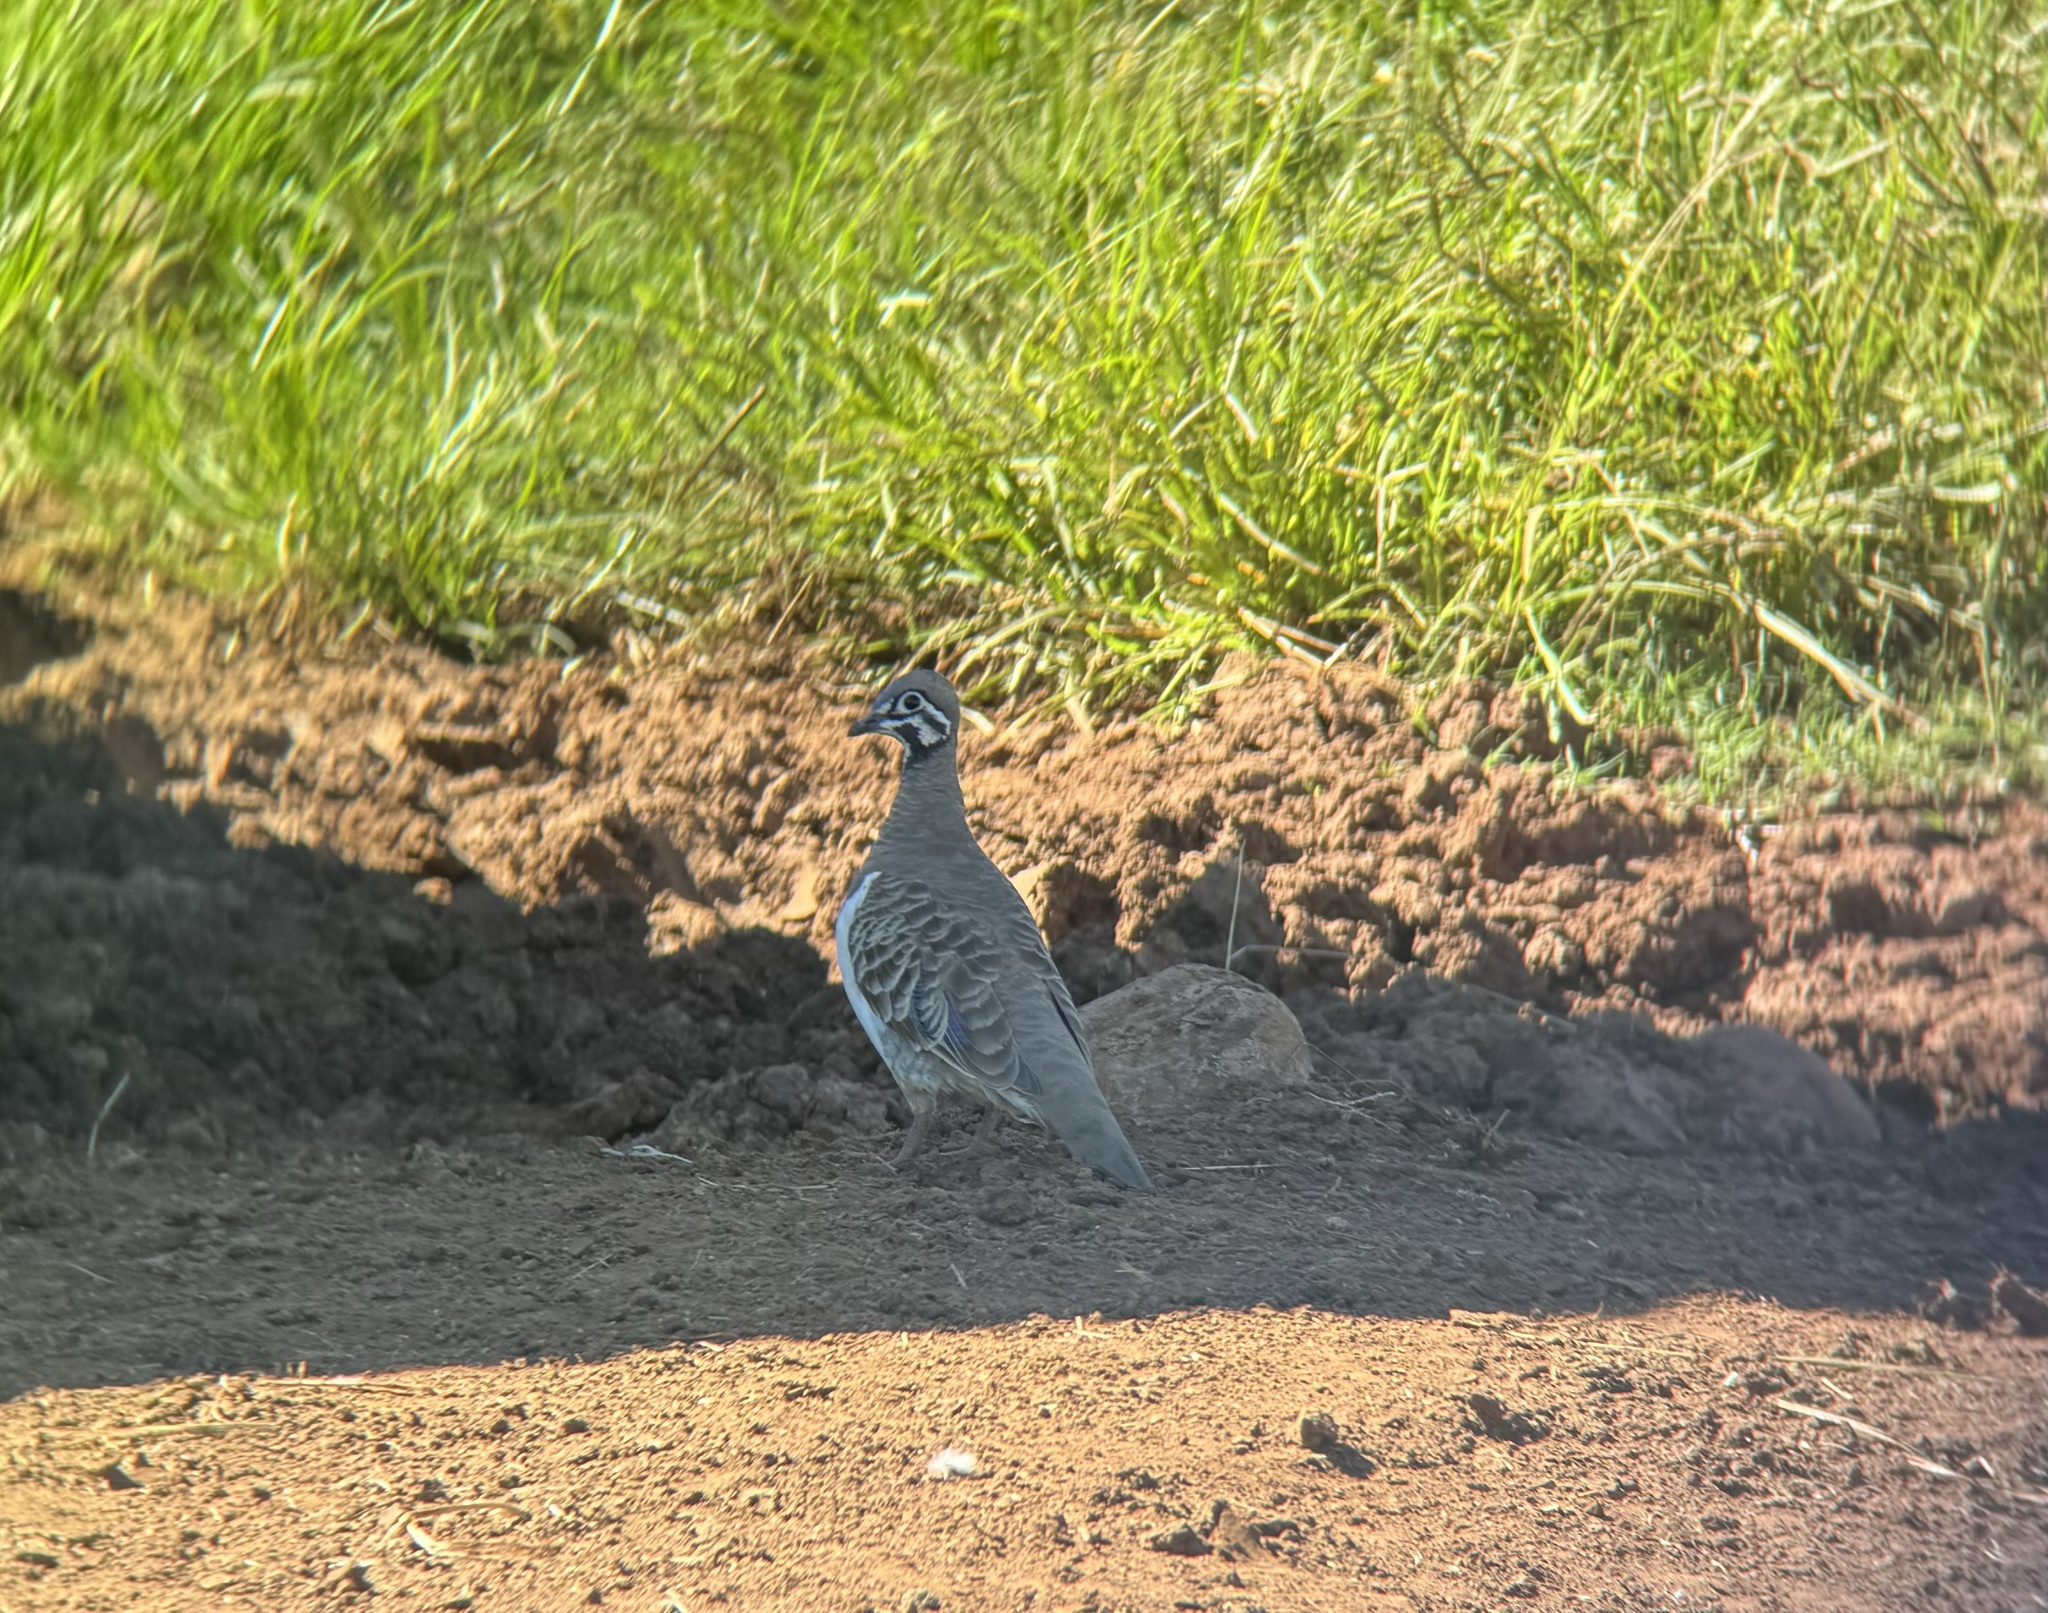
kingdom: Animalia
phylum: Chordata
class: Aves
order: Columbiformes
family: Columbidae
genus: Geophaps
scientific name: Geophaps scripta
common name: Squatter pigeon
